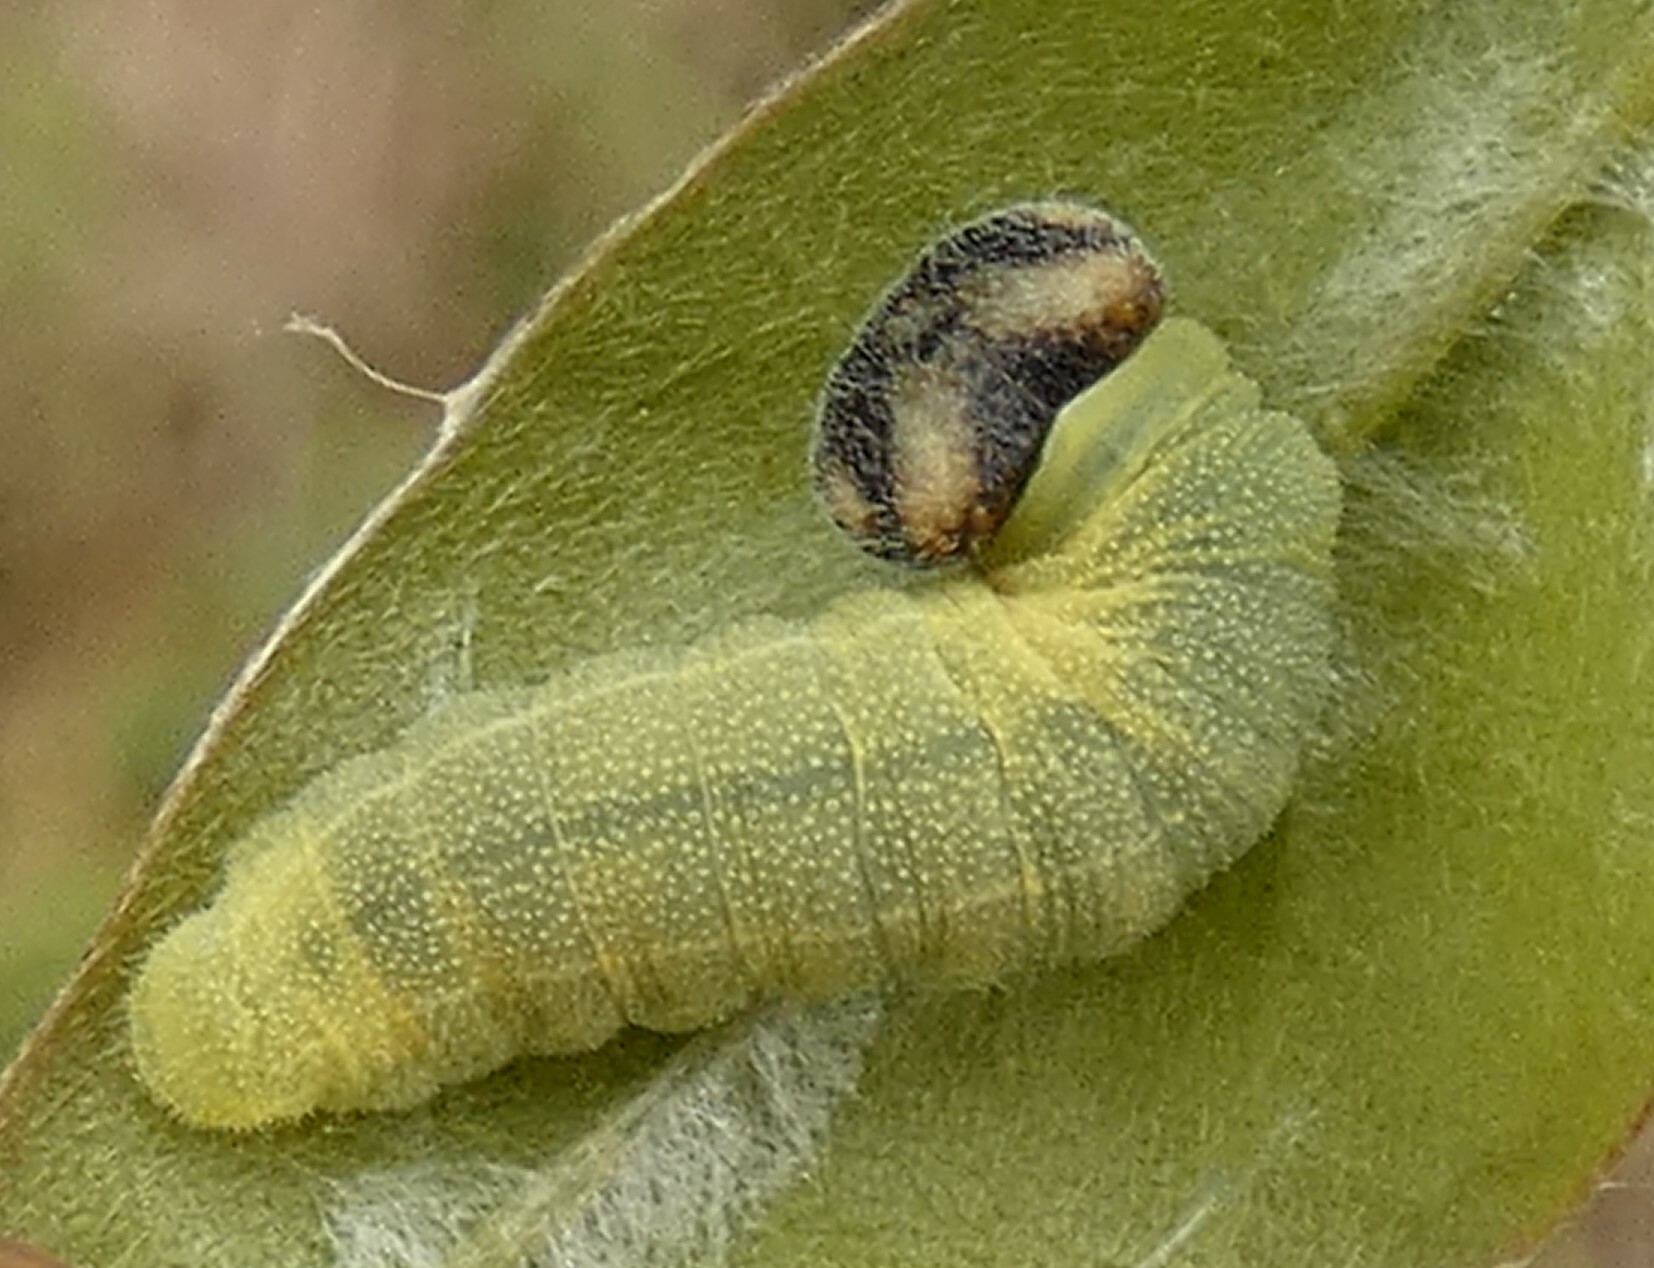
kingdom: Animalia
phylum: Arthropoda
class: Insecta
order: Lepidoptera
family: Hesperiidae
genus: Erynnis
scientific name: Erynnis zarucco
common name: Zarucco duskywing
